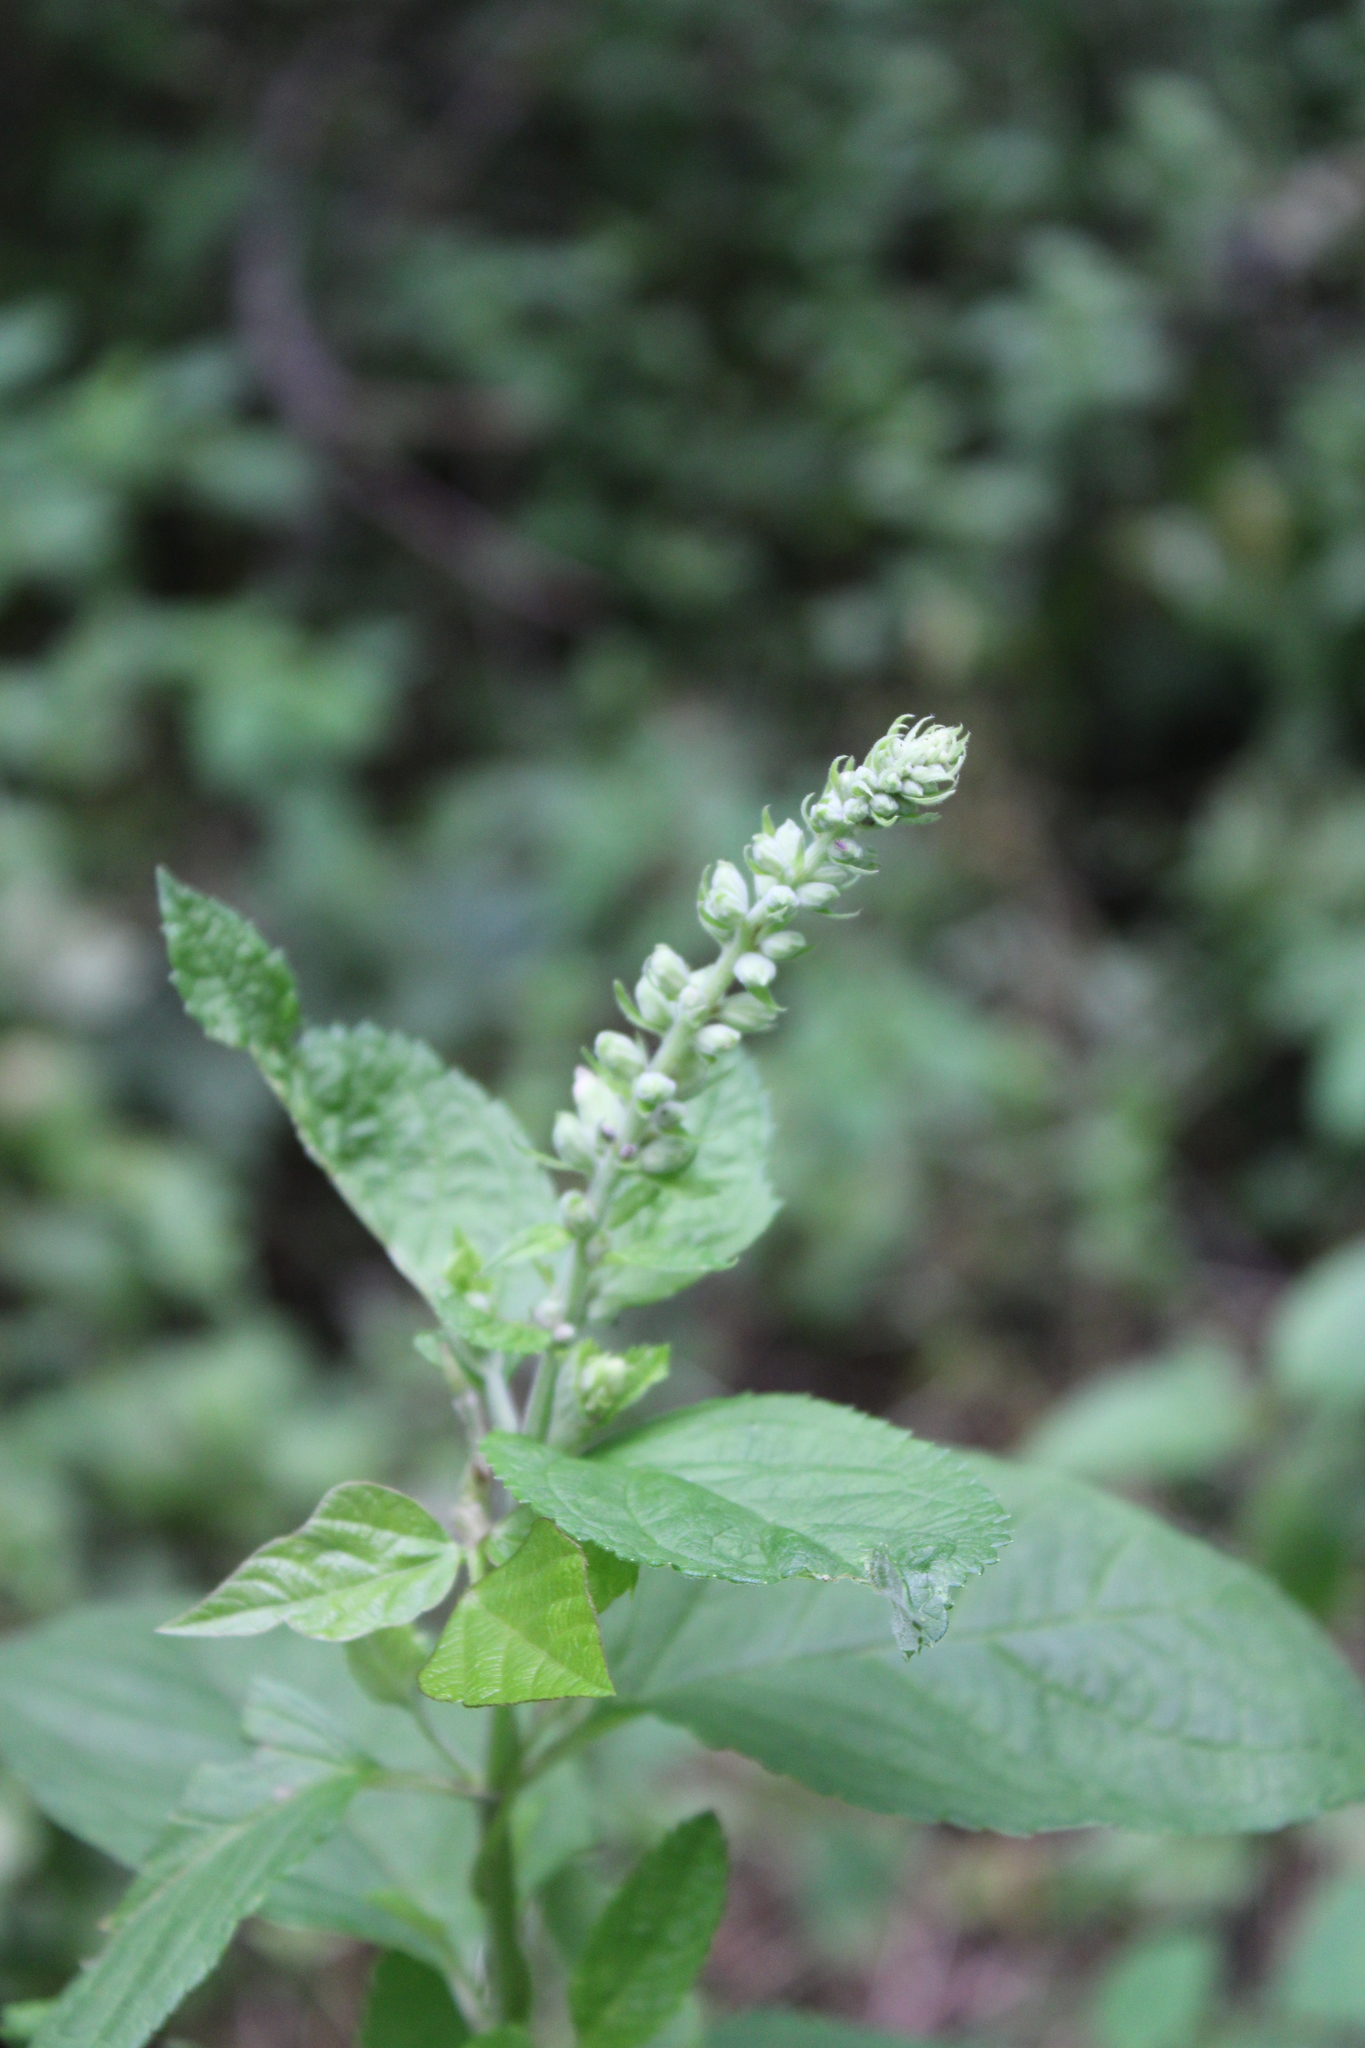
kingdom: Plantae
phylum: Tracheophyta
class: Magnoliopsida
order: Lamiales
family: Lamiaceae
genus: Teucrium
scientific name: Teucrium canadense
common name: American germander
